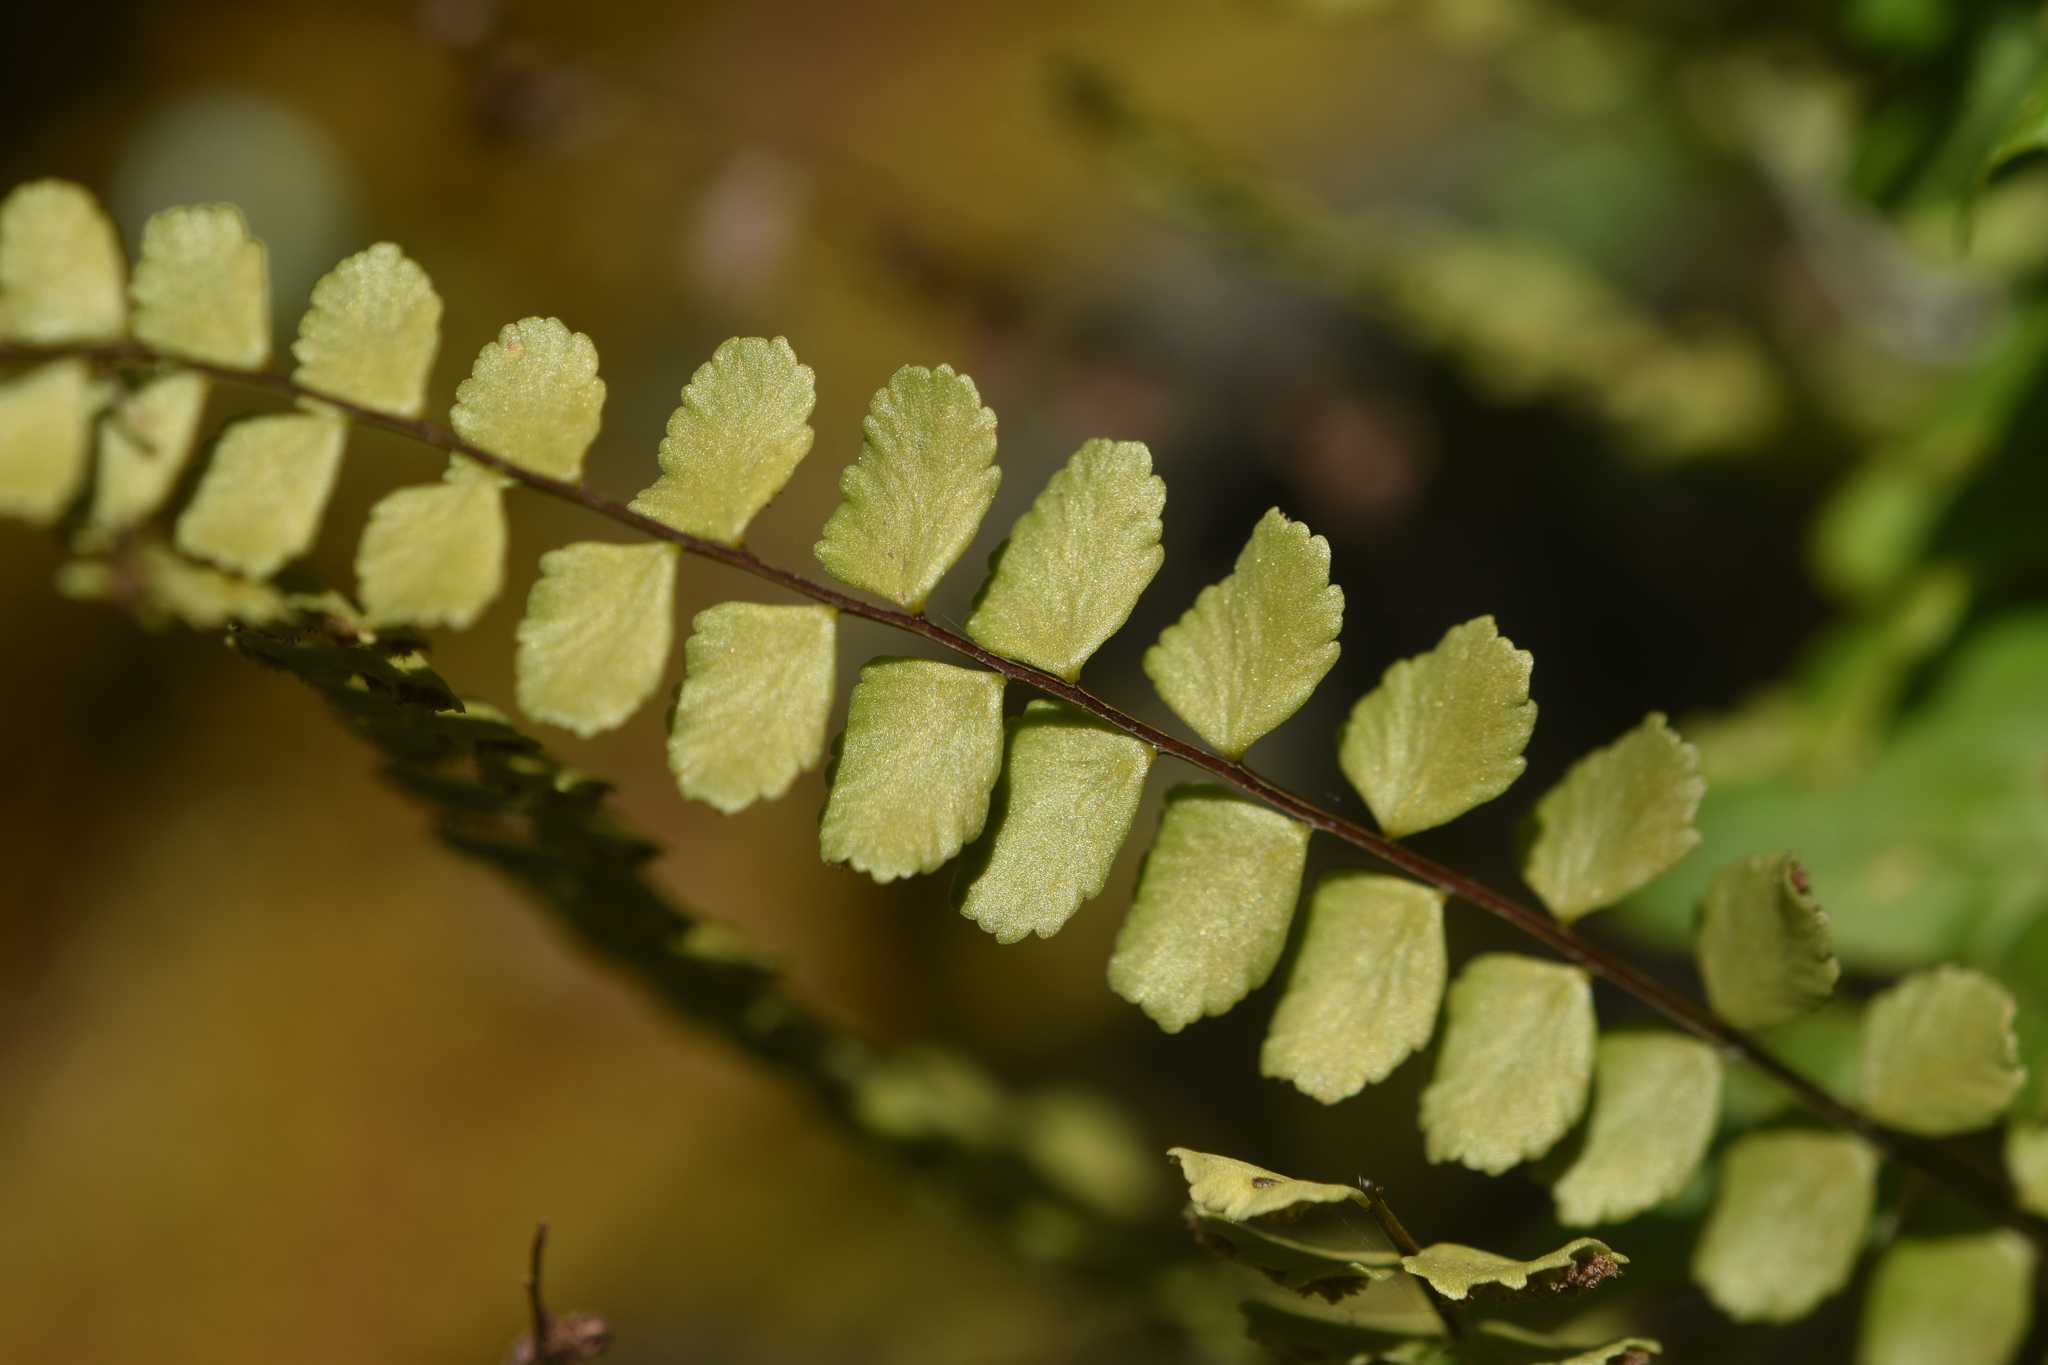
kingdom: Plantae
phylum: Tracheophyta
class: Polypodiopsida
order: Polypodiales
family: Aspleniaceae
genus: Asplenium
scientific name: Asplenium trichomanes
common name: Maidenhair spleenwort
